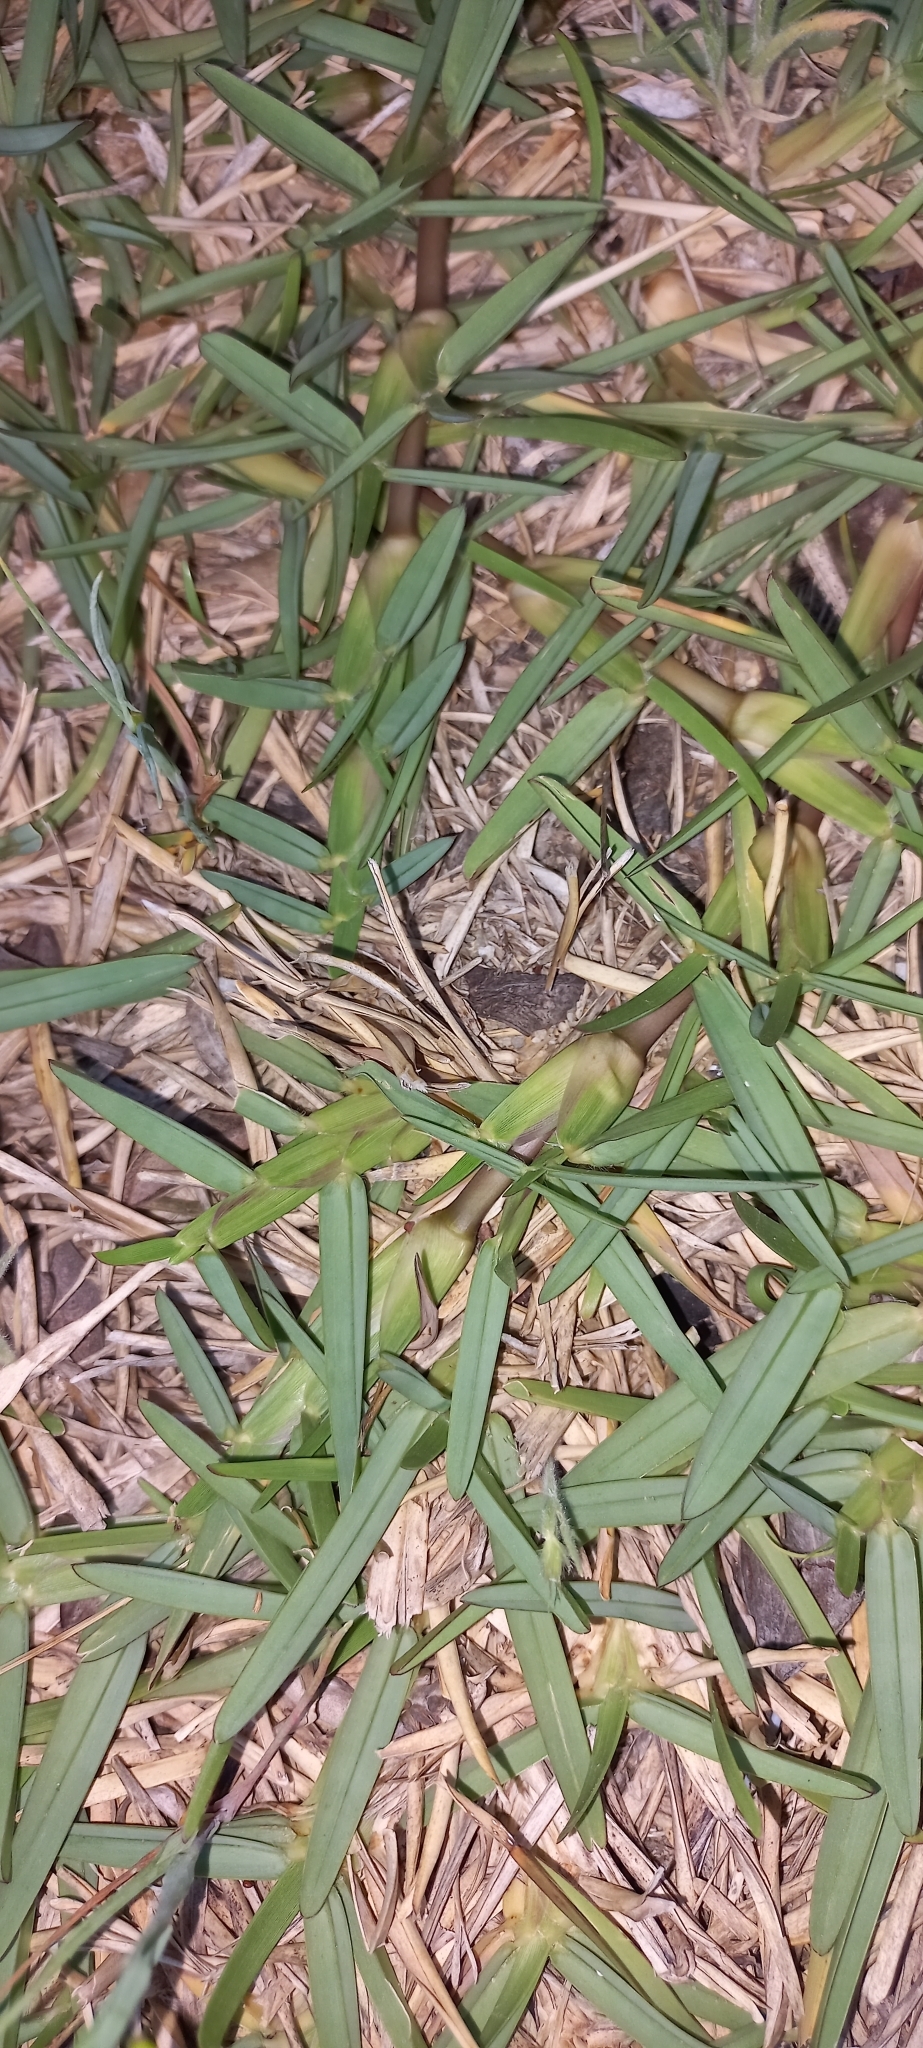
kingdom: Plantae
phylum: Tracheophyta
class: Liliopsida
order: Poales
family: Poaceae
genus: Stenotaphrum
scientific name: Stenotaphrum secundatum
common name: St. augustine grass
